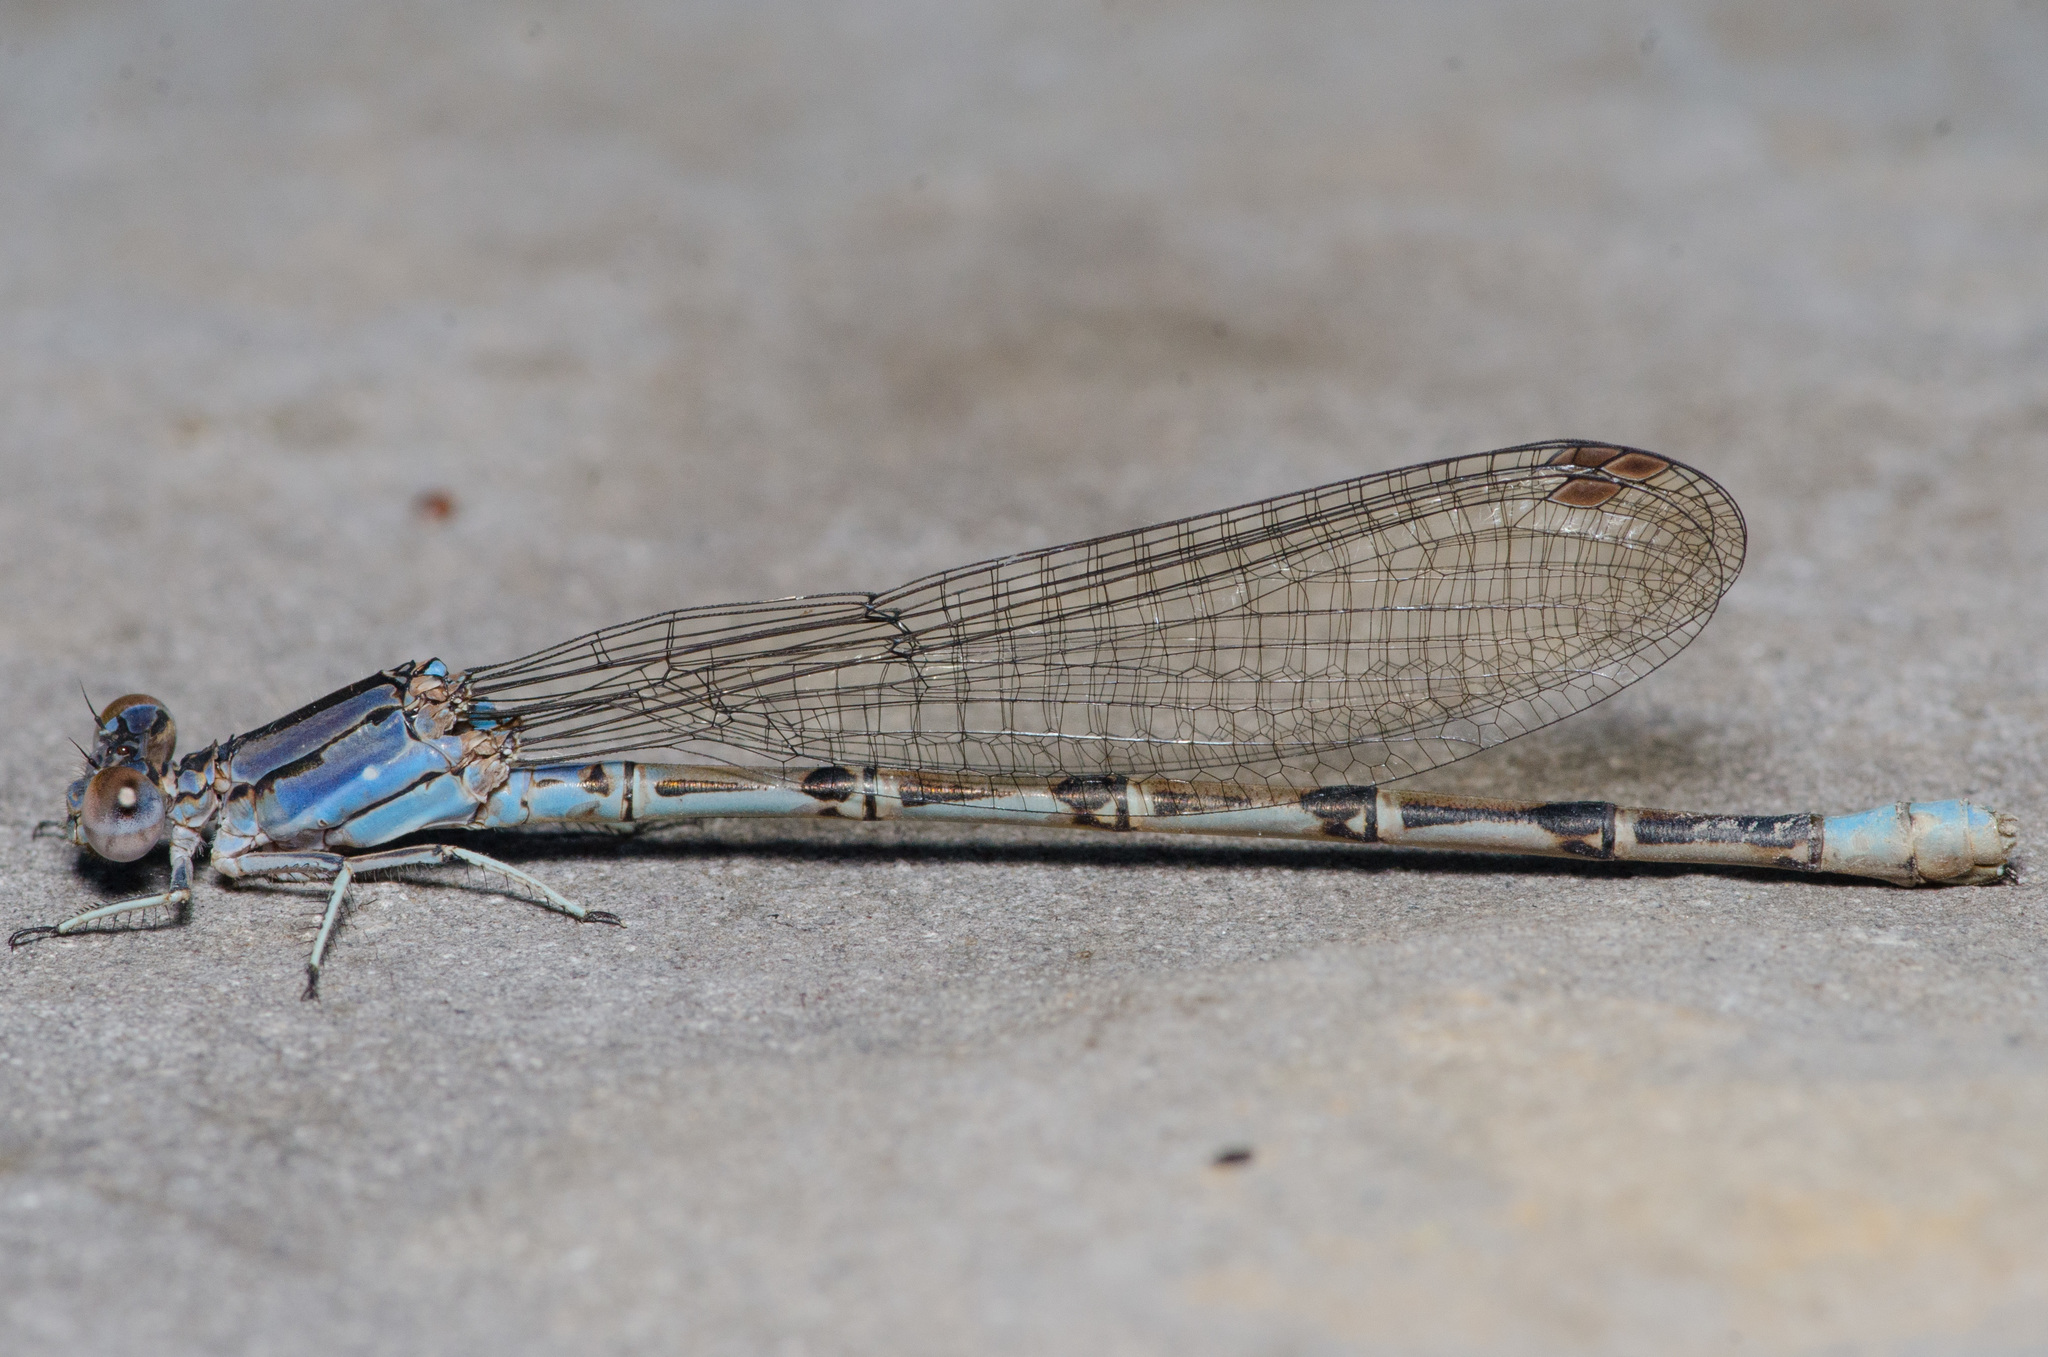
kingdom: Animalia
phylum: Arthropoda
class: Insecta
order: Odonata
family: Coenagrionidae
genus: Argia
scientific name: Argia funebris
